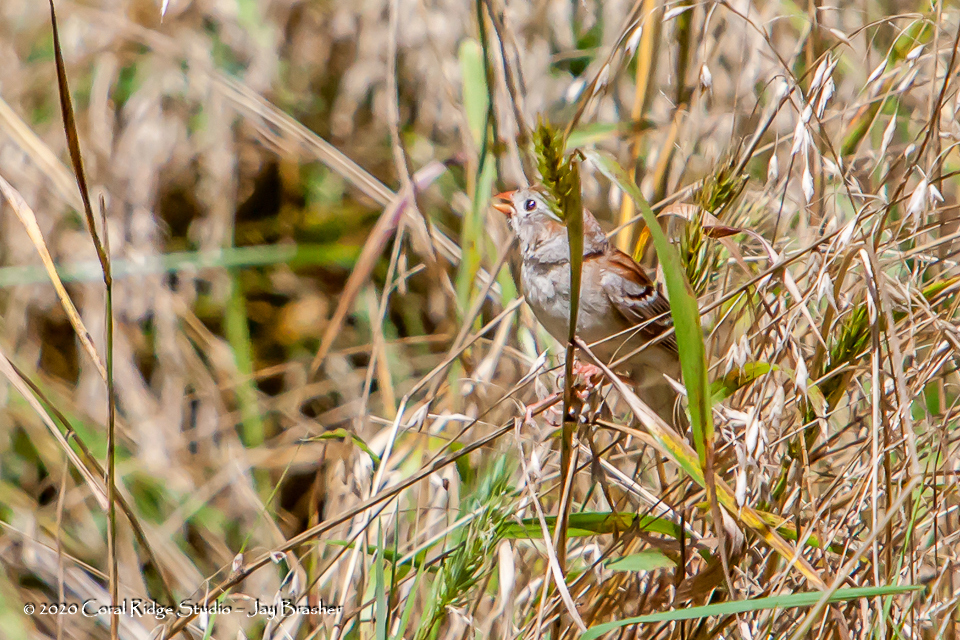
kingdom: Animalia
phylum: Chordata
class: Aves
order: Passeriformes
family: Passerellidae
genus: Spizella
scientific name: Spizella pusilla
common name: Field sparrow
